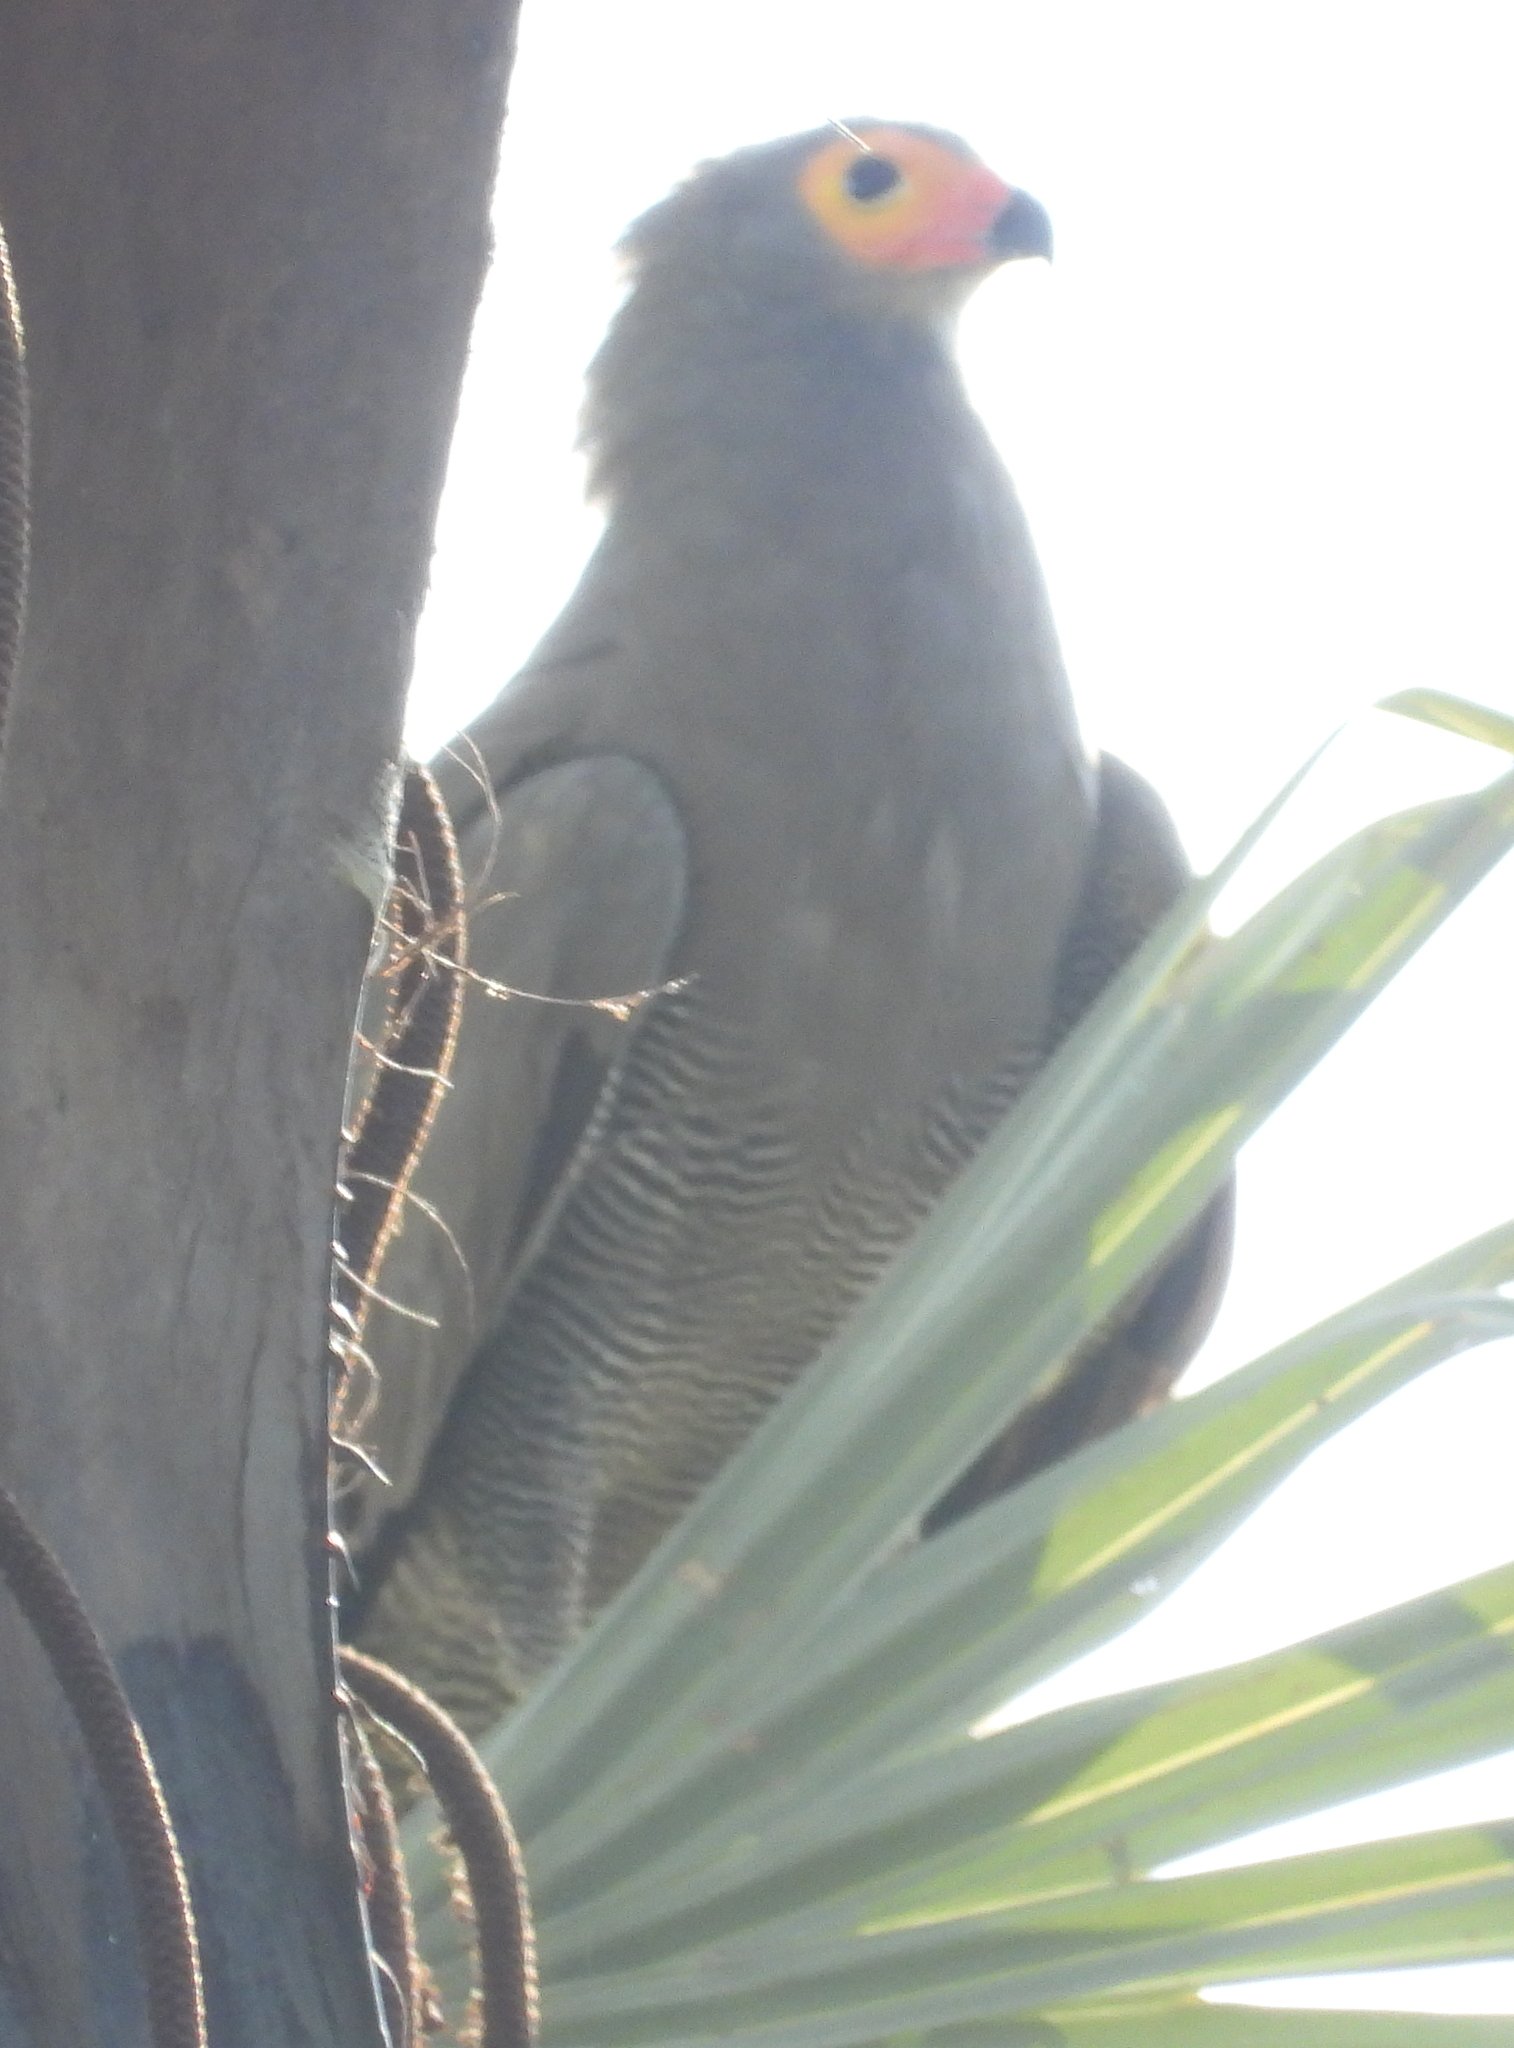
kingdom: Animalia
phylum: Chordata
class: Aves
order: Accipitriformes
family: Accipitridae
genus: Polyboroides
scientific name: Polyboroides typus
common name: African harrier-hawk
